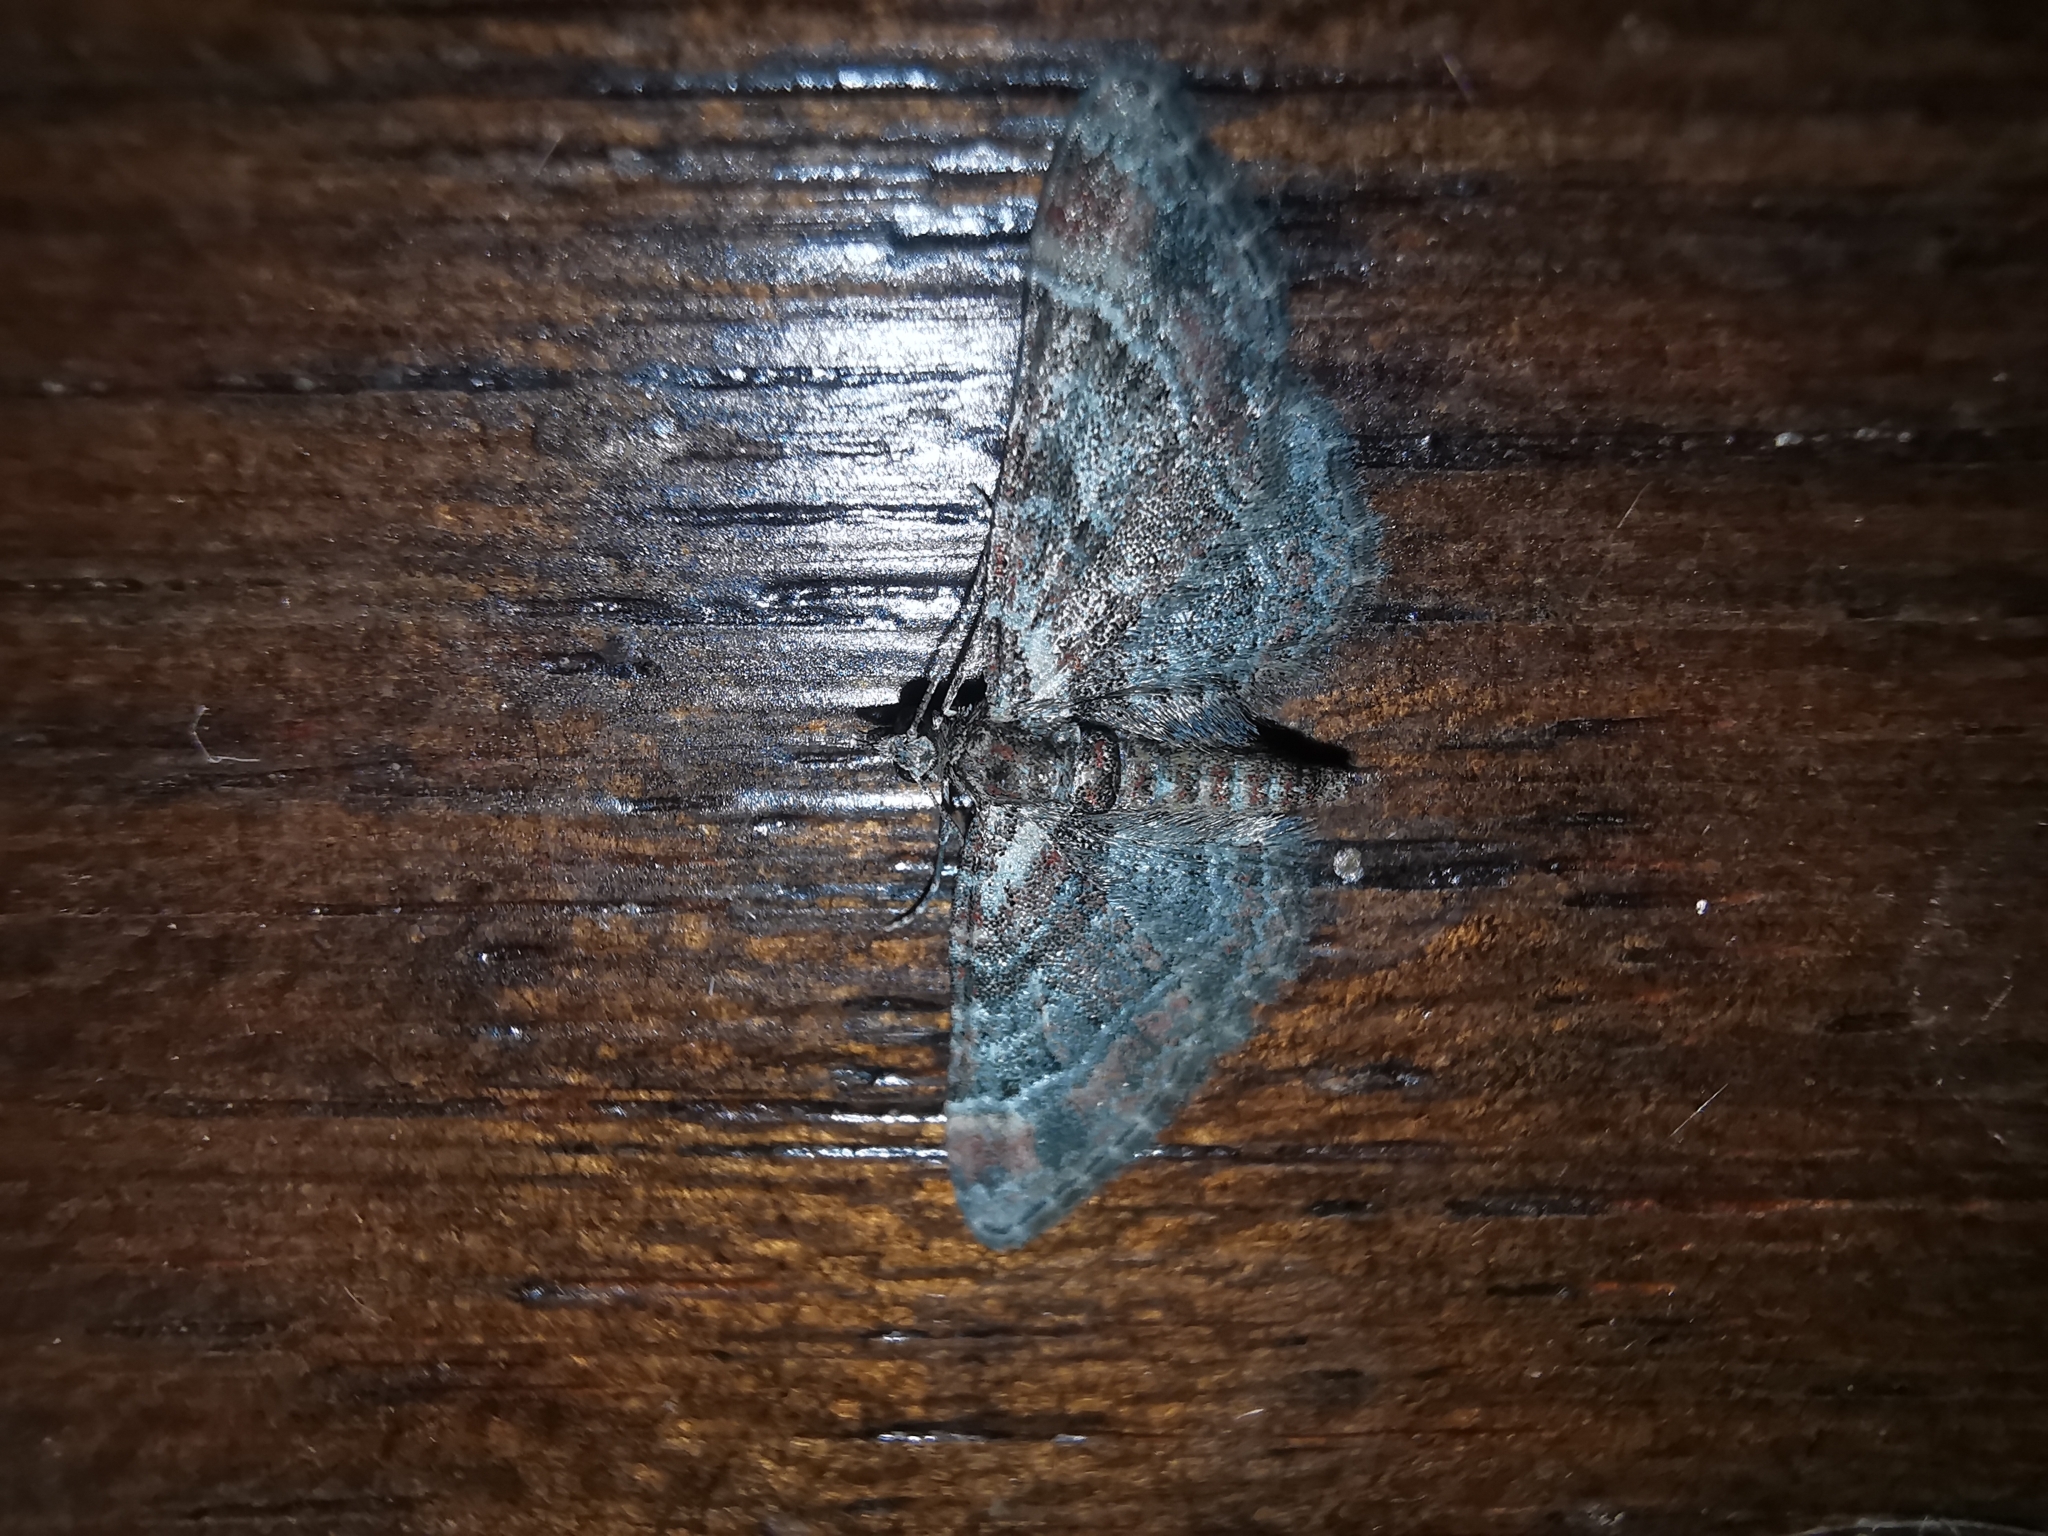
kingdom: Animalia
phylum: Arthropoda
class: Insecta
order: Lepidoptera
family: Geometridae
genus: Gymnoscelis
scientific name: Gymnoscelis rufifasciata
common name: Double-striped pug
